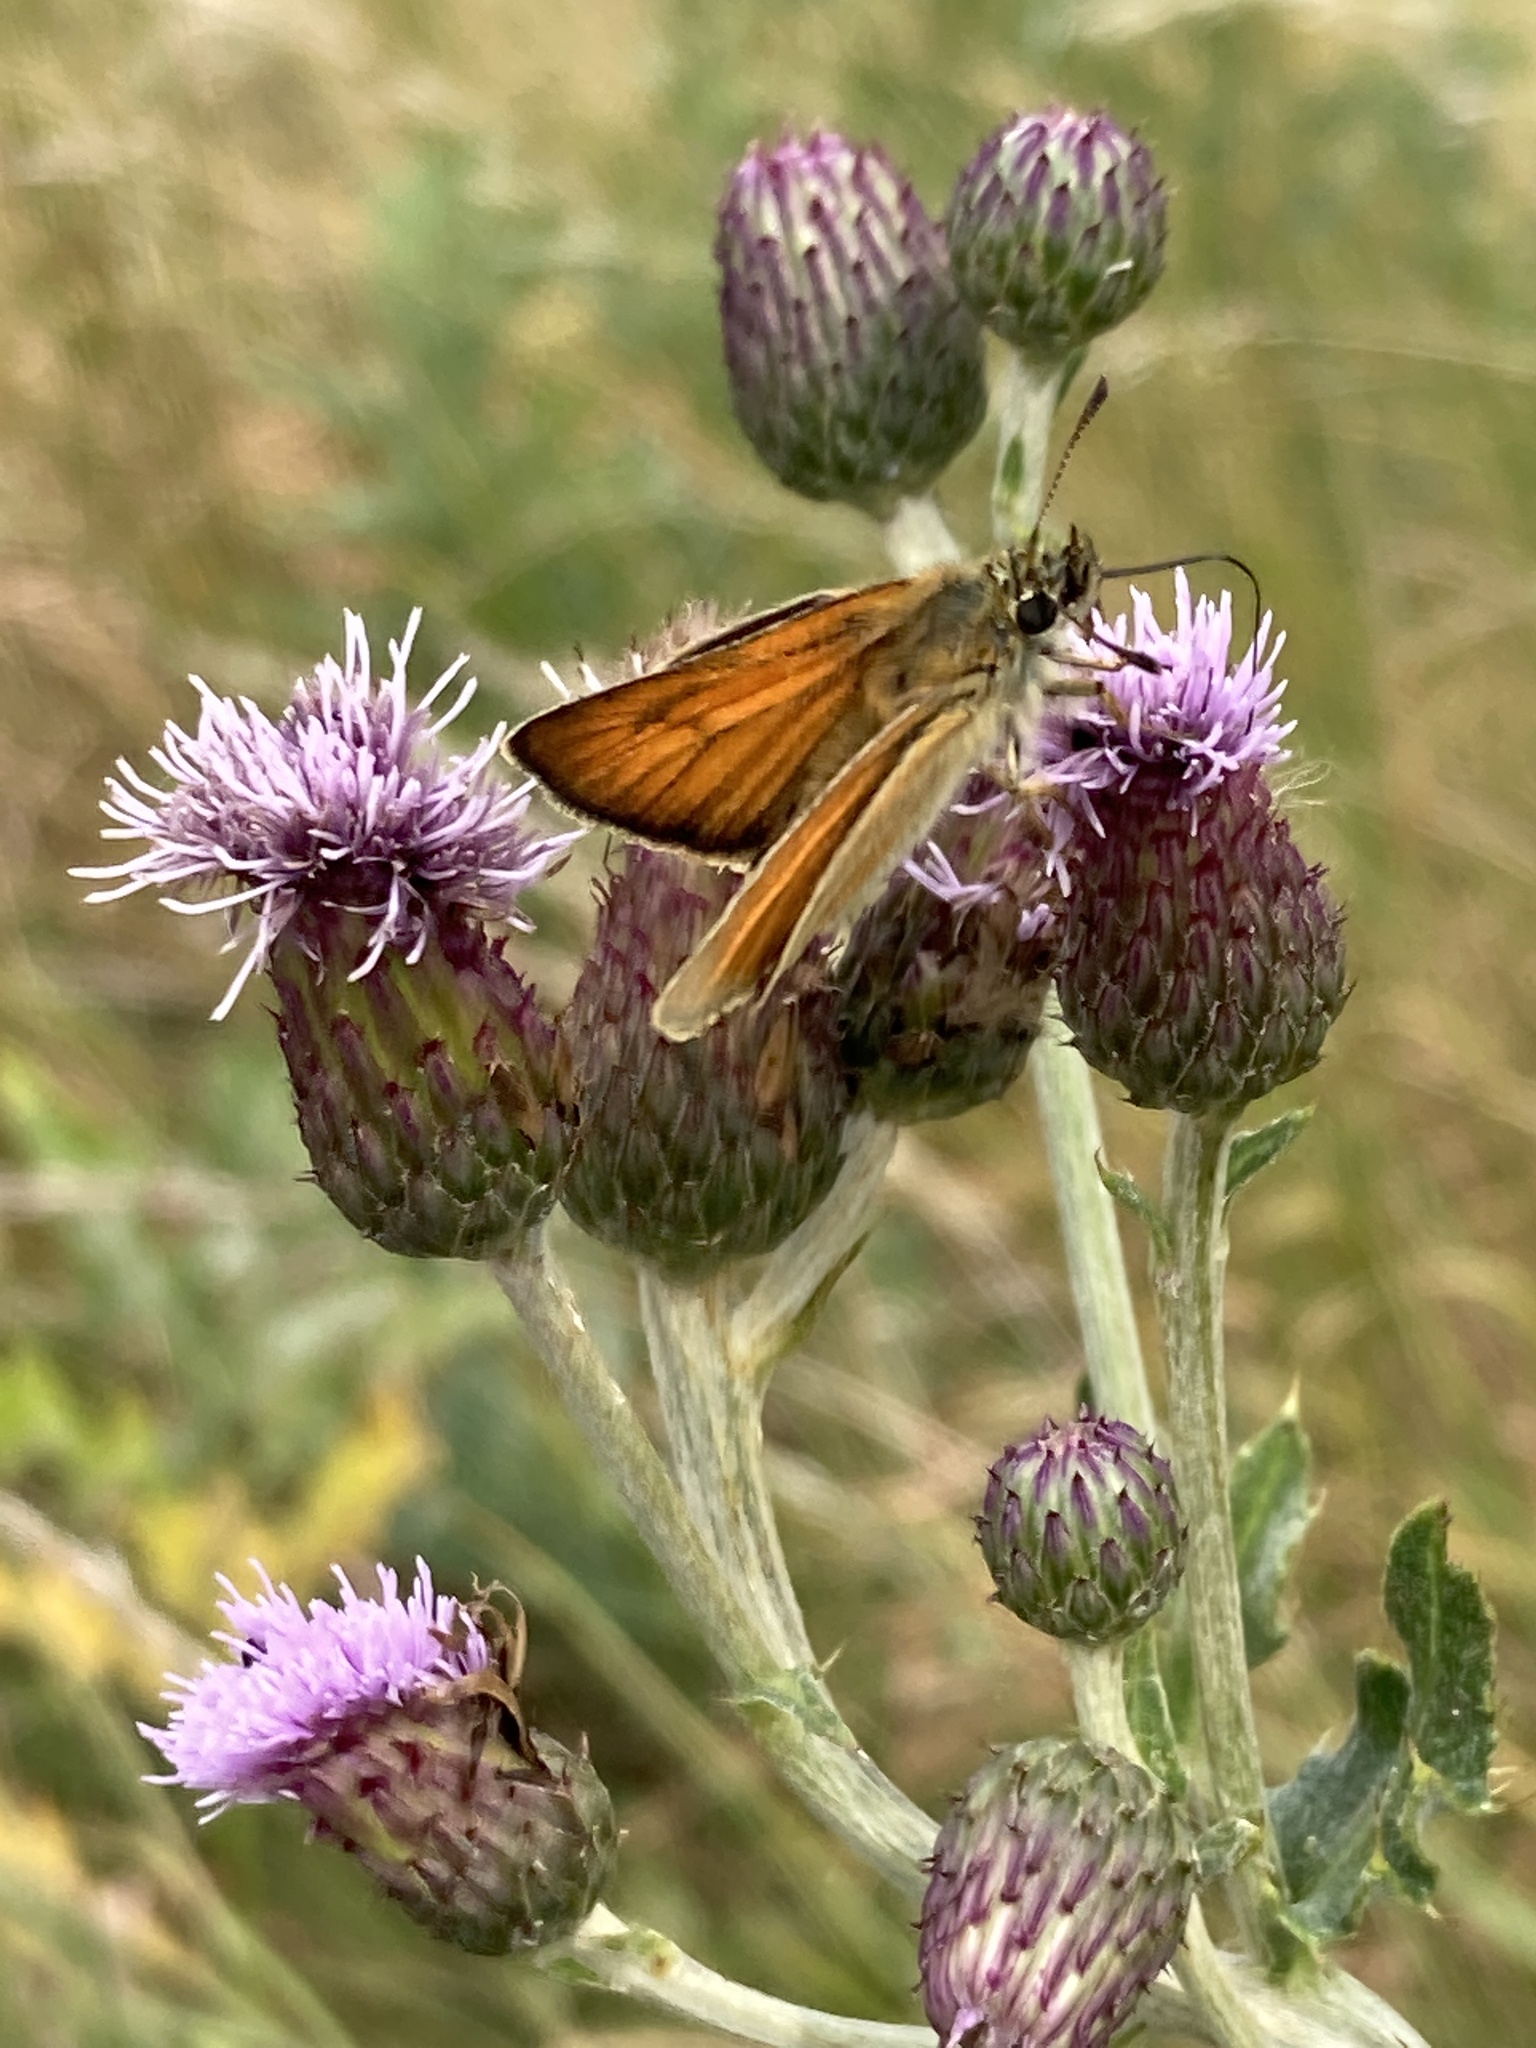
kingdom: Animalia
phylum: Arthropoda
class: Insecta
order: Lepidoptera
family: Hesperiidae
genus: Thymelicus
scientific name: Thymelicus sylvestris
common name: Small skipper
